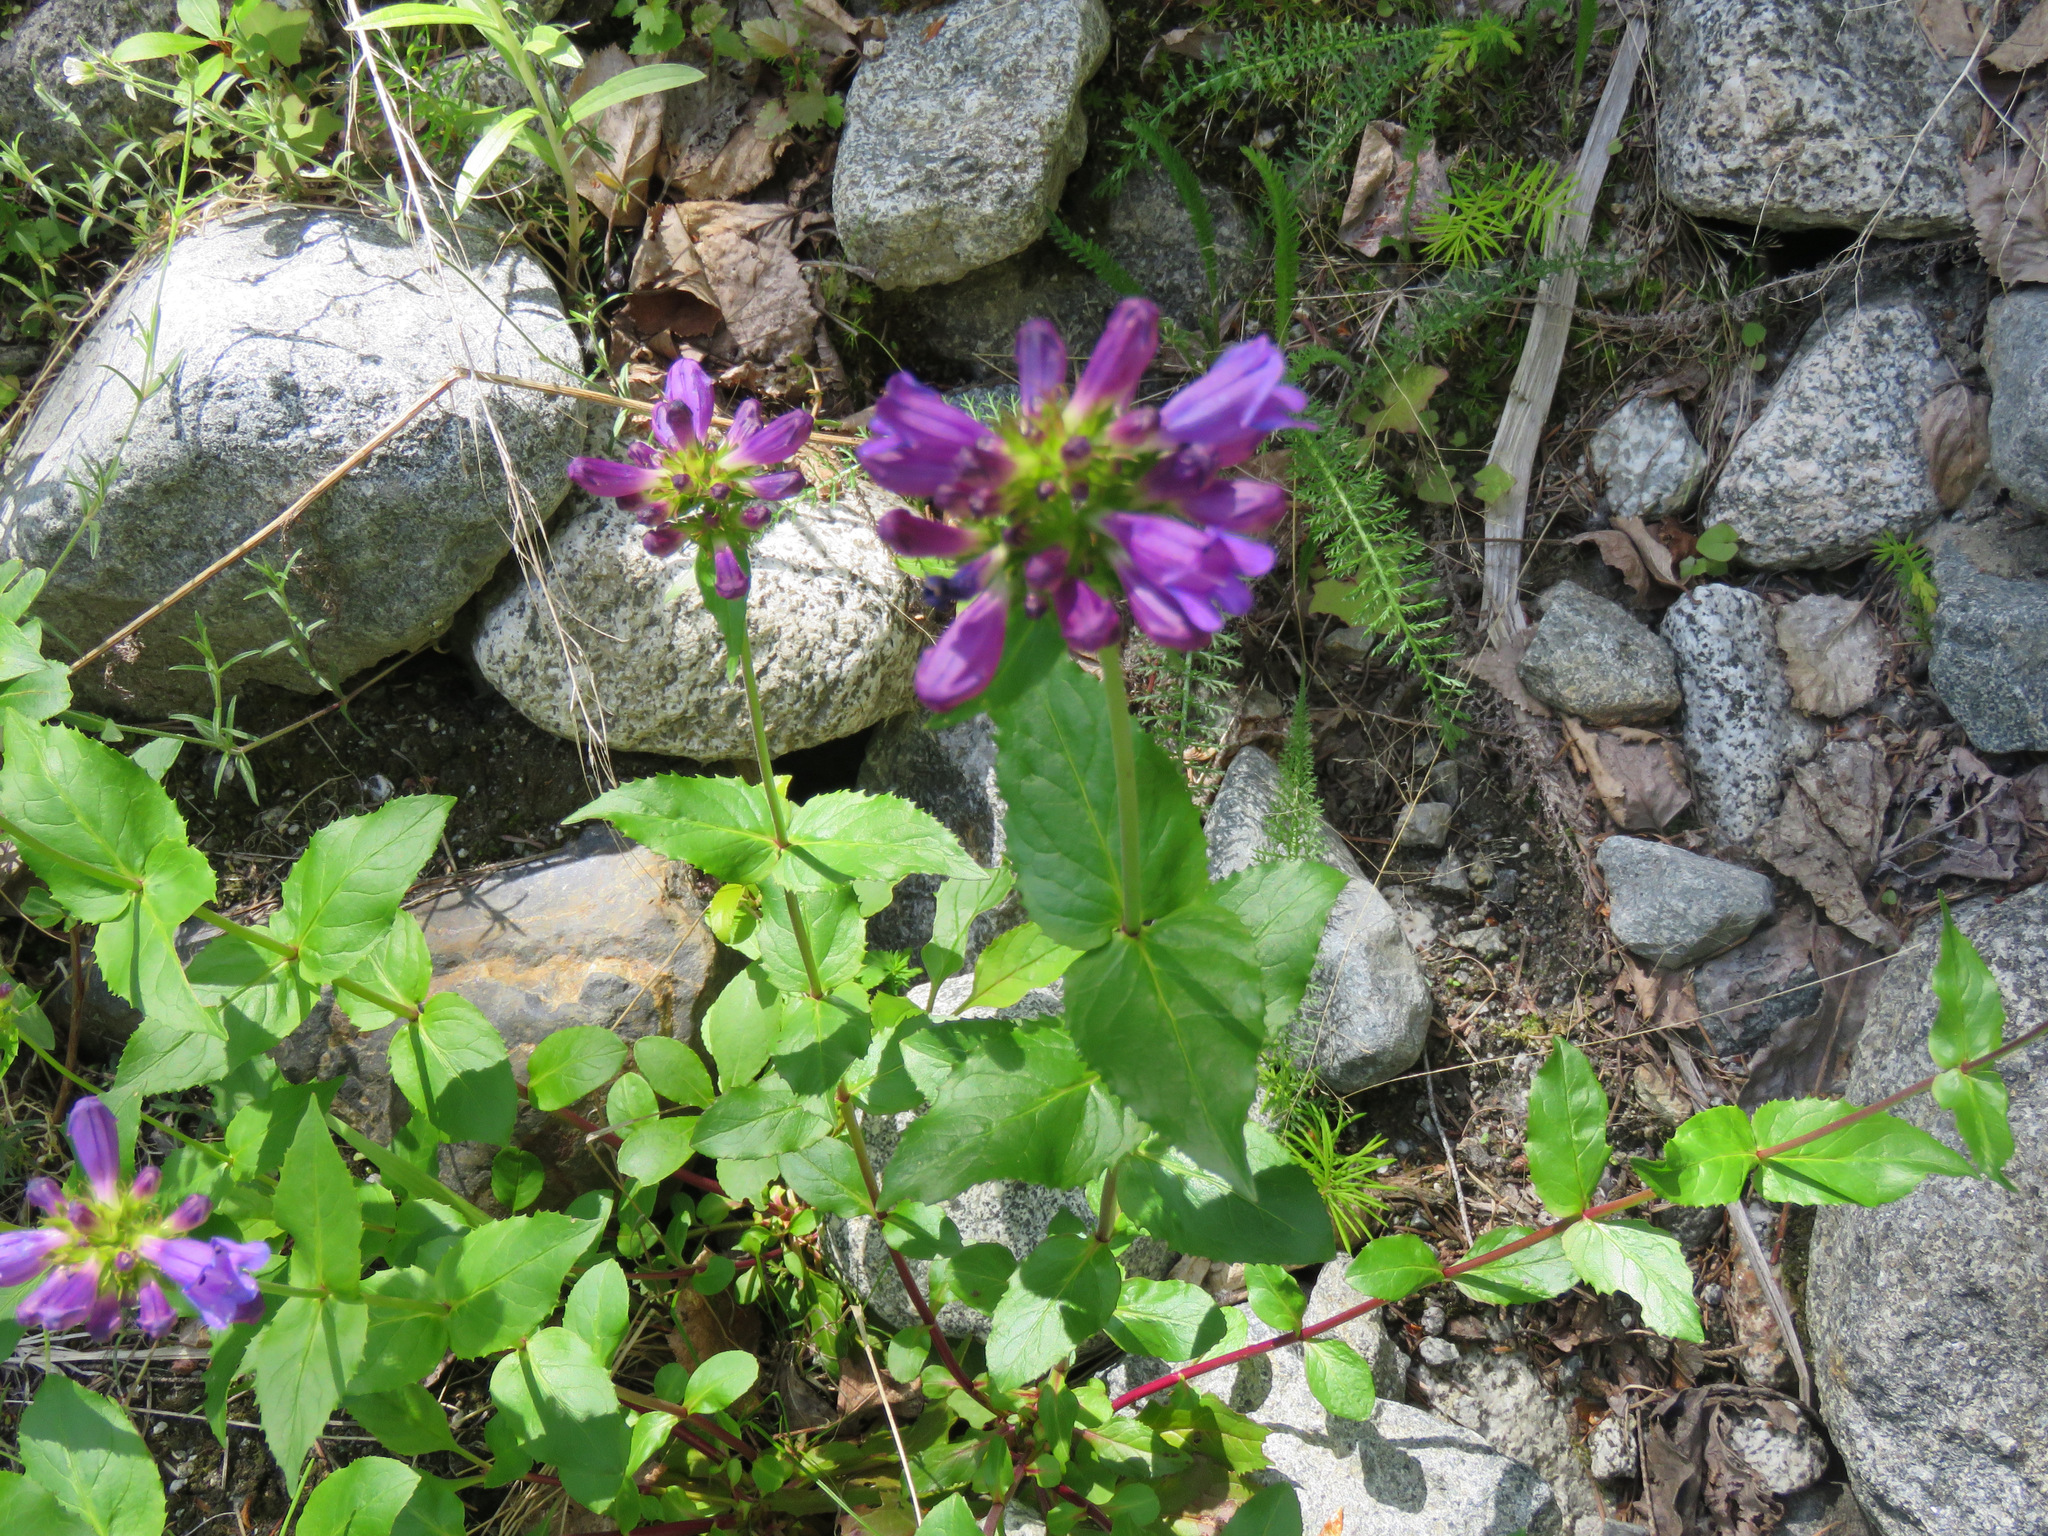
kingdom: Plantae
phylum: Tracheophyta
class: Magnoliopsida
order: Lamiales
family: Plantaginaceae
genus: Penstemon
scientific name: Penstemon serrulatus
